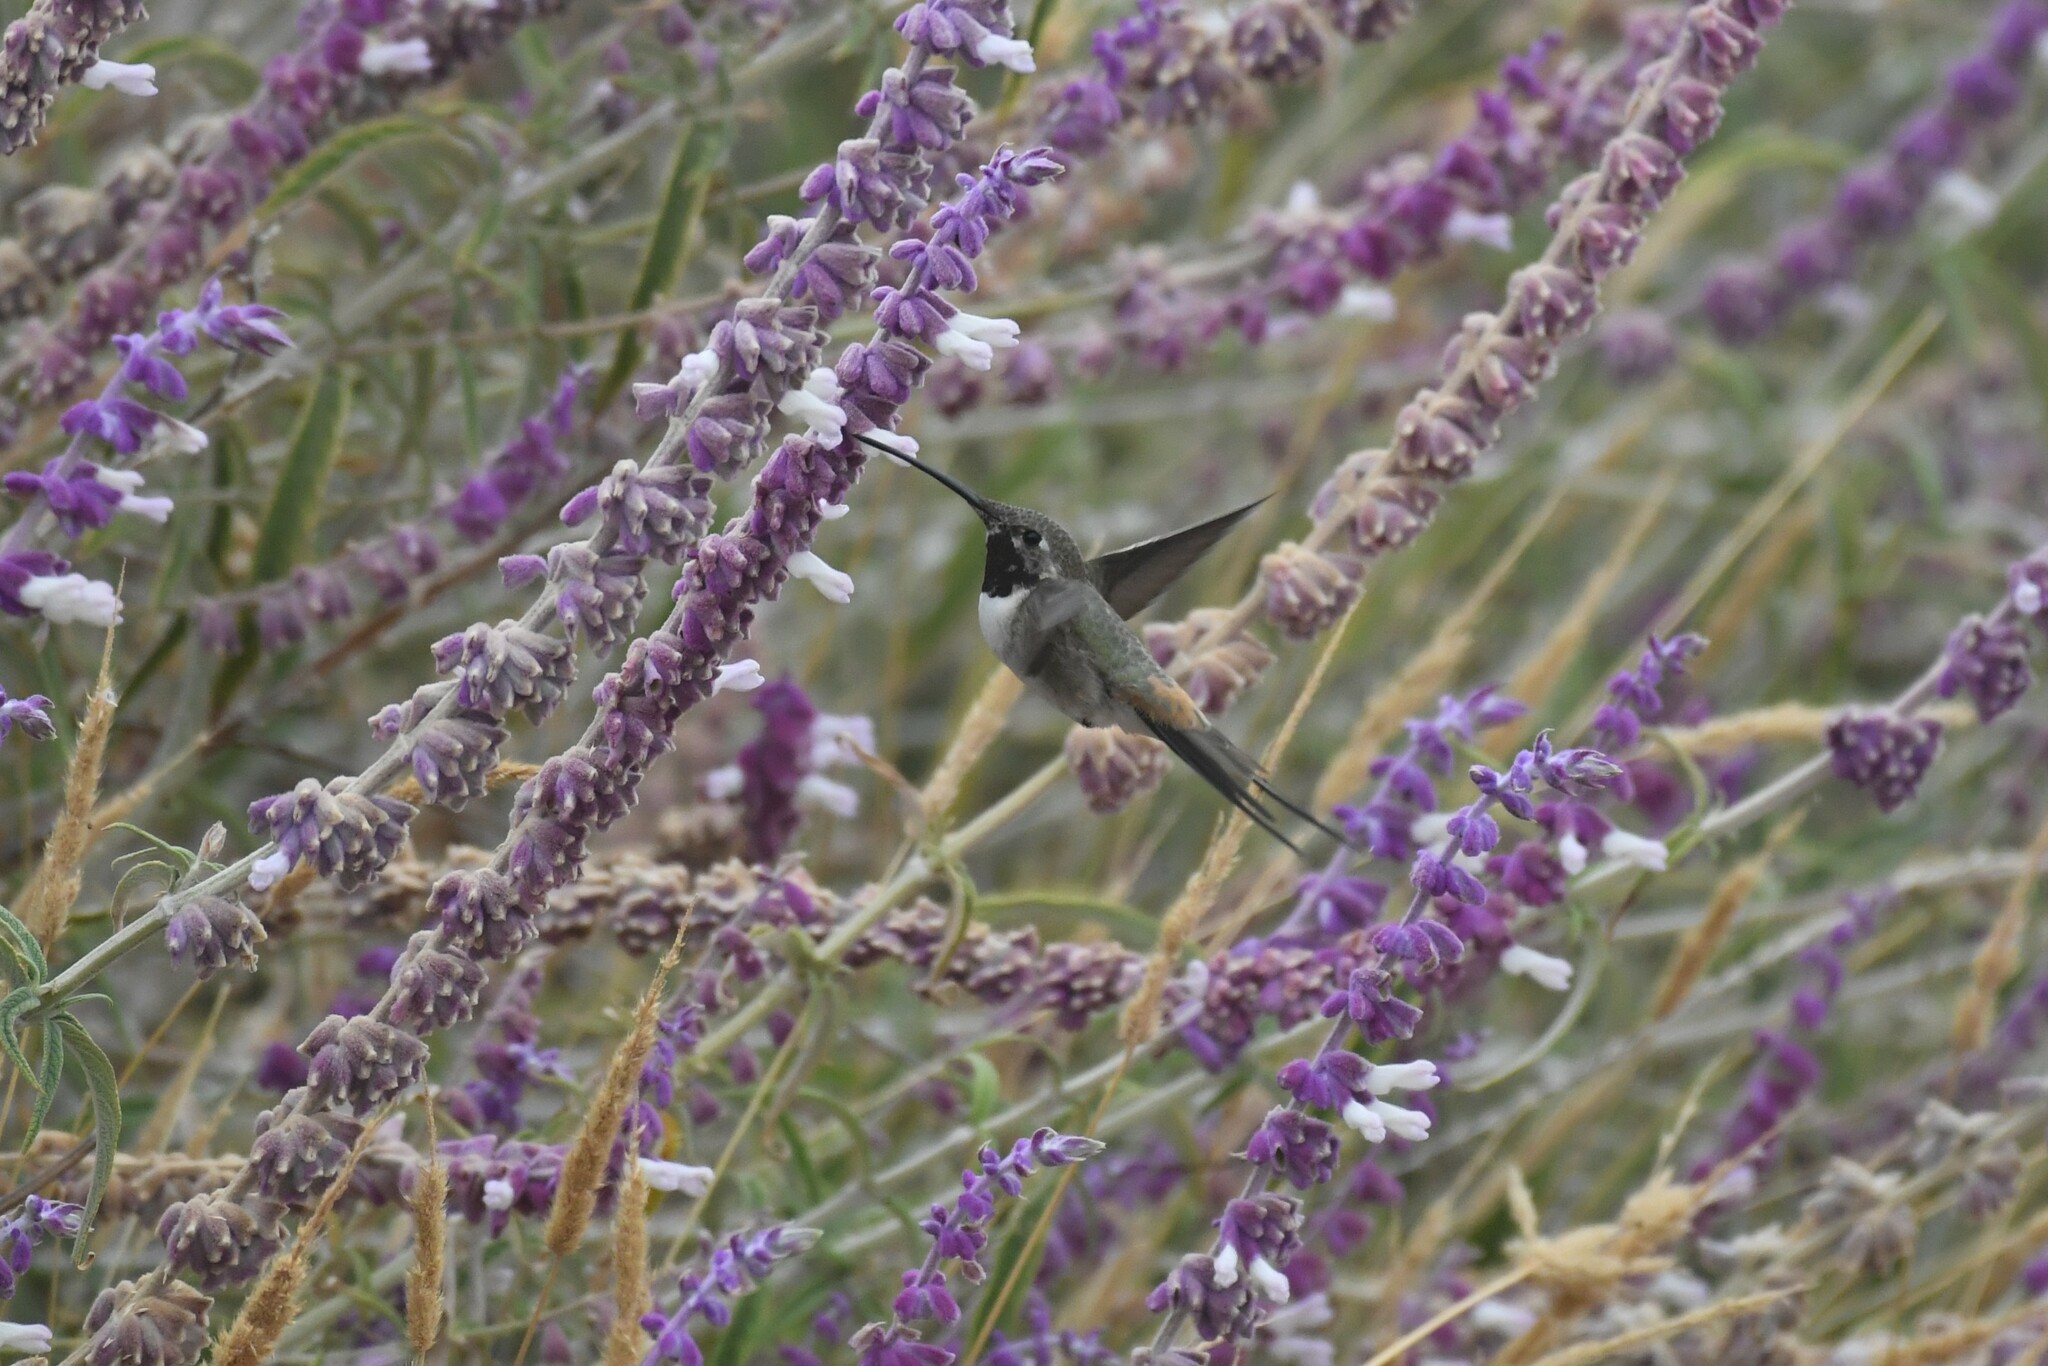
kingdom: Animalia
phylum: Chordata
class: Aves
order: Apodiformes
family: Trochilidae
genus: Rhodopis
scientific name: Rhodopis vesper
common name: Oasis hummingbird
